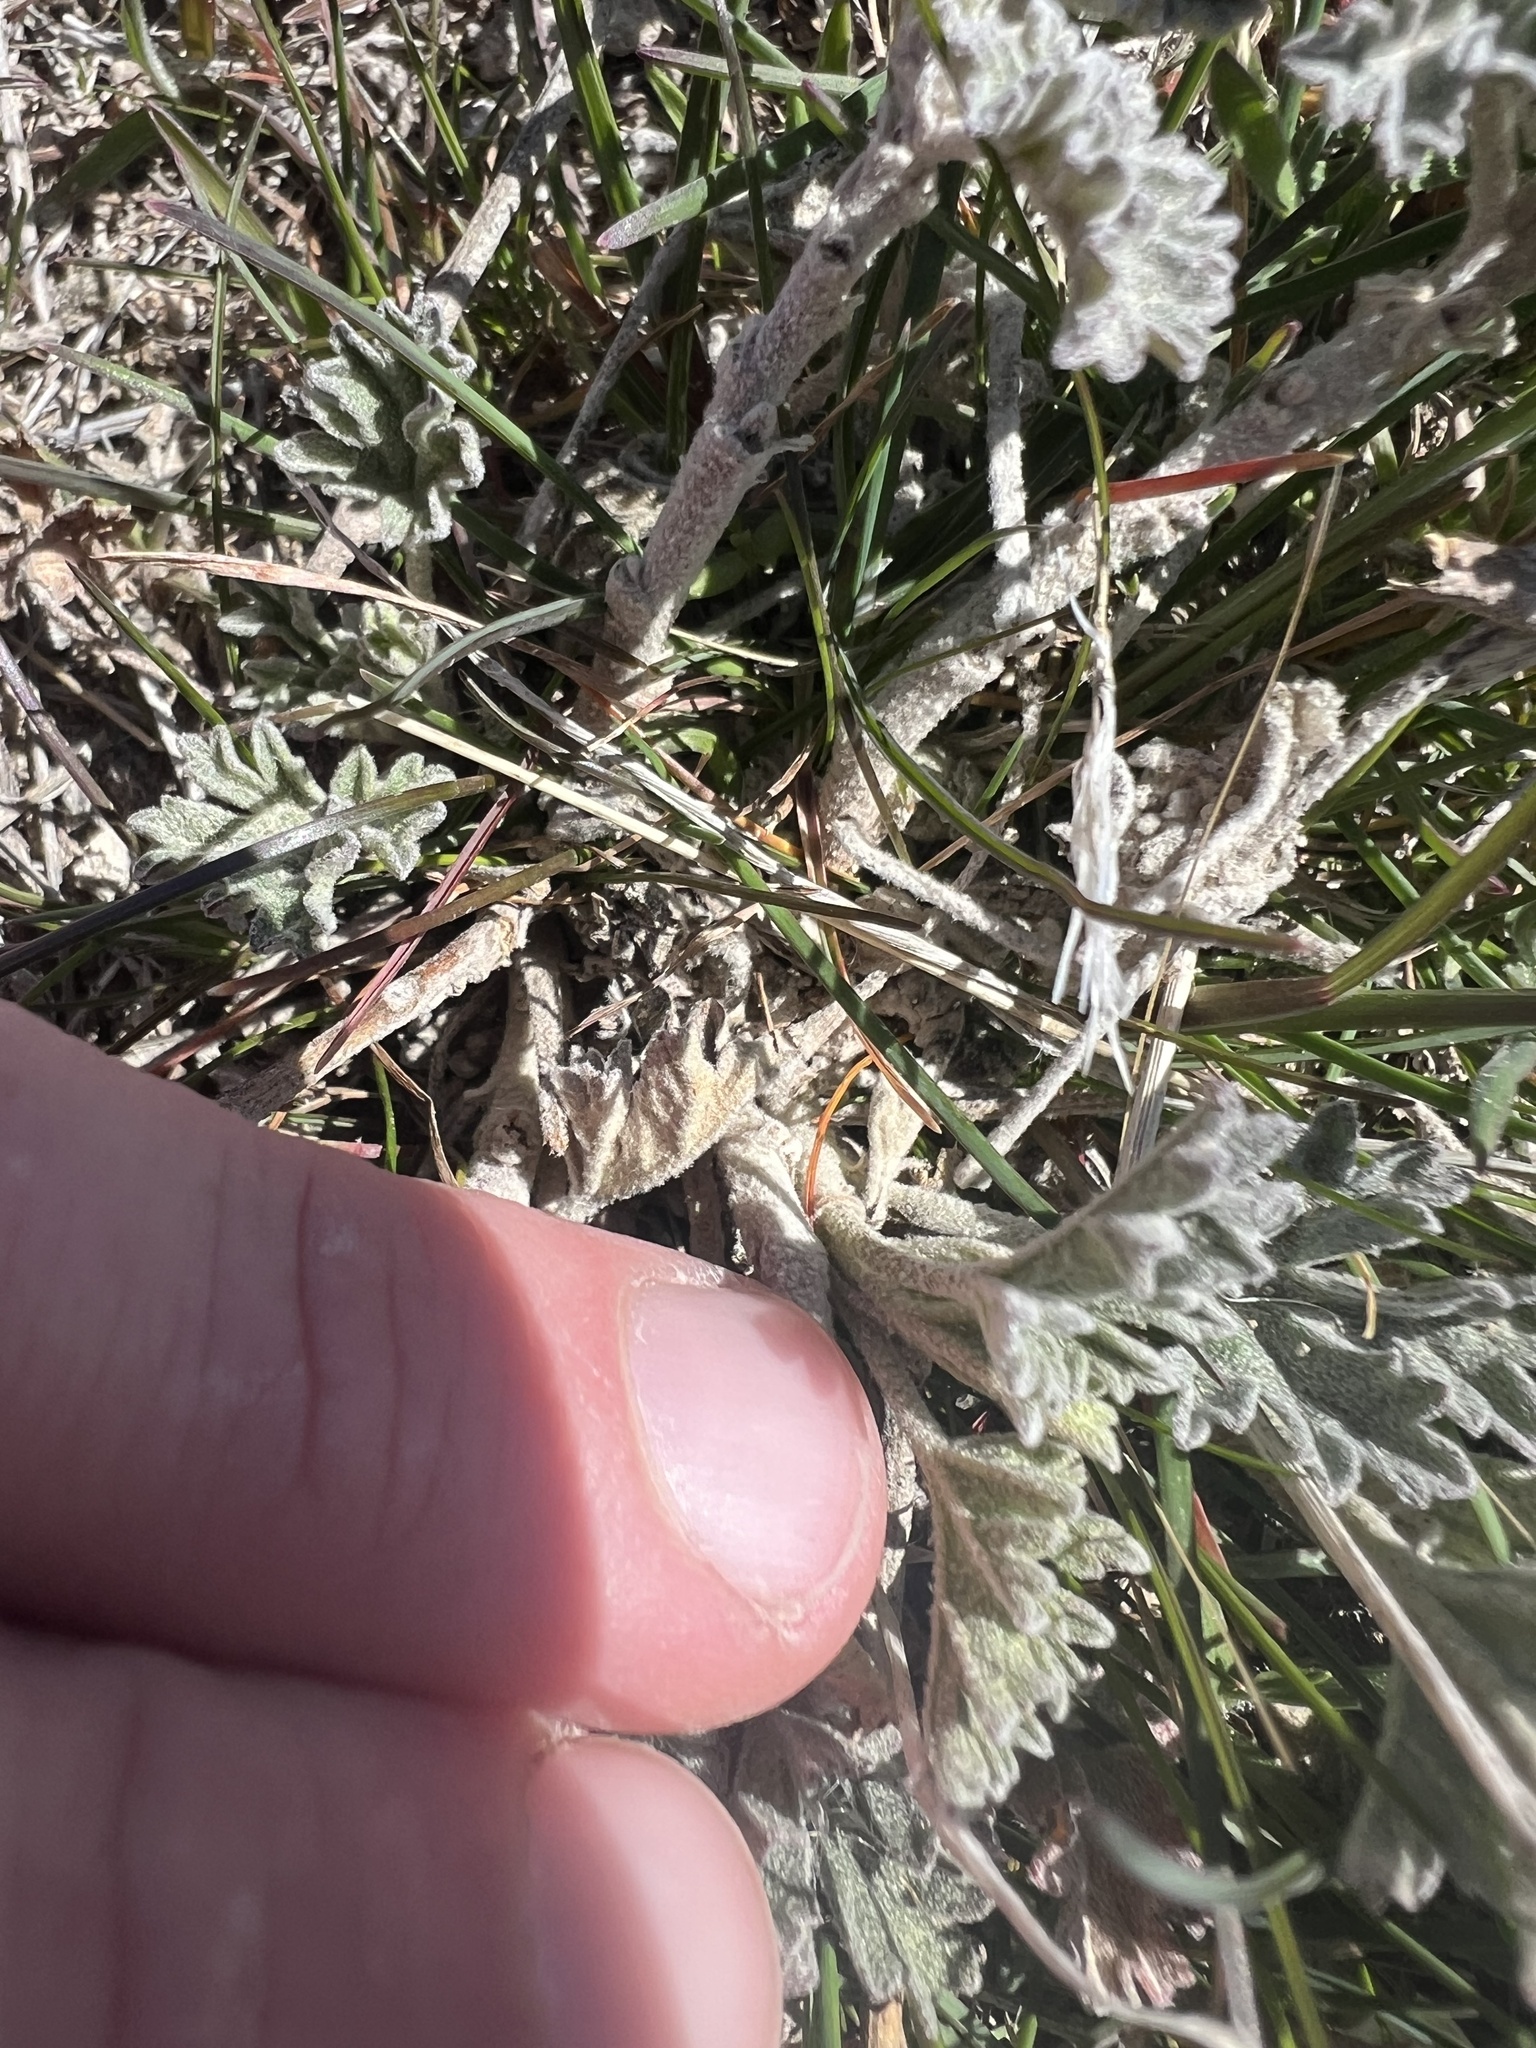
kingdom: Plantae
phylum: Tracheophyta
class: Magnoliopsida
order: Malvales
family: Malvaceae
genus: Sphaeralcea
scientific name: Sphaeralcea grossulariifolia
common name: Current-leaf globe-mallow
